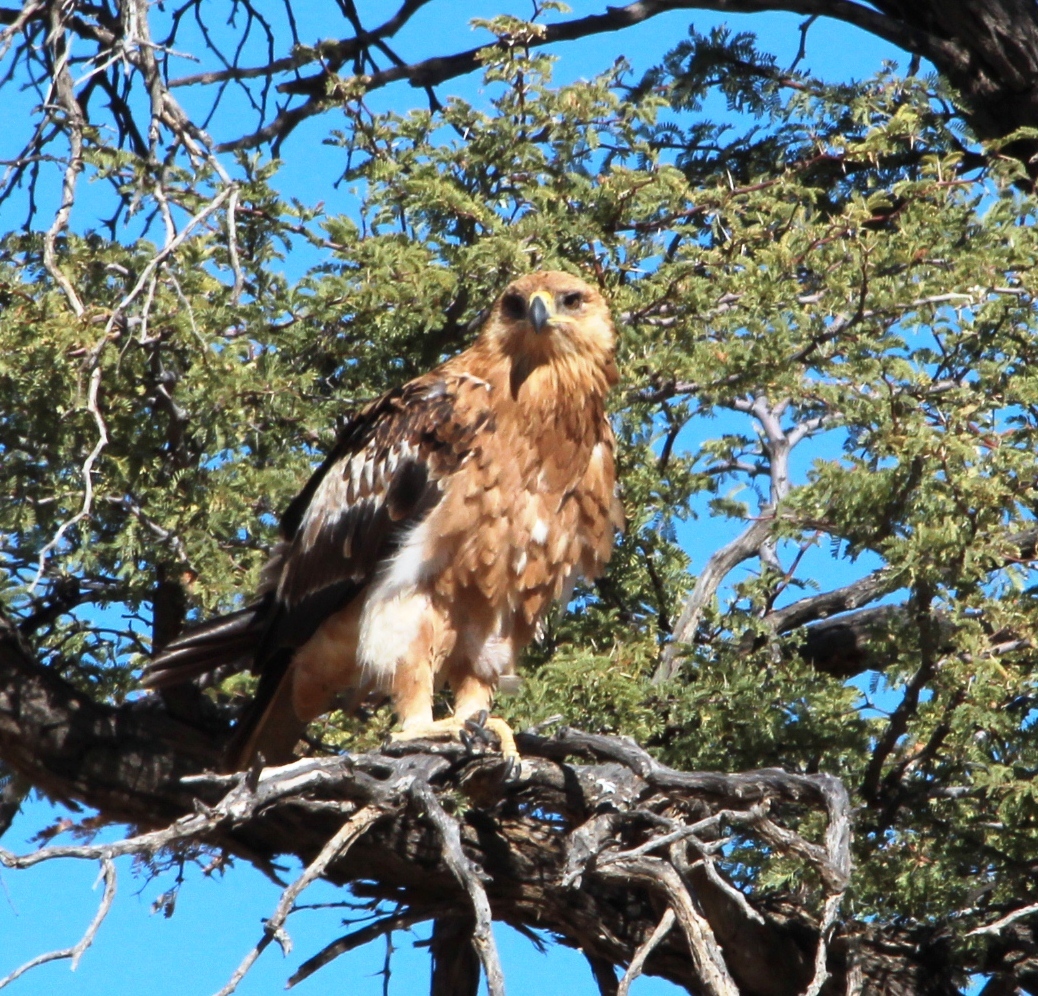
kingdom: Animalia
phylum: Chordata
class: Aves
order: Accipitriformes
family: Accipitridae
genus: Hieraaetus
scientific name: Hieraaetus pennatus
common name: Booted eagle
